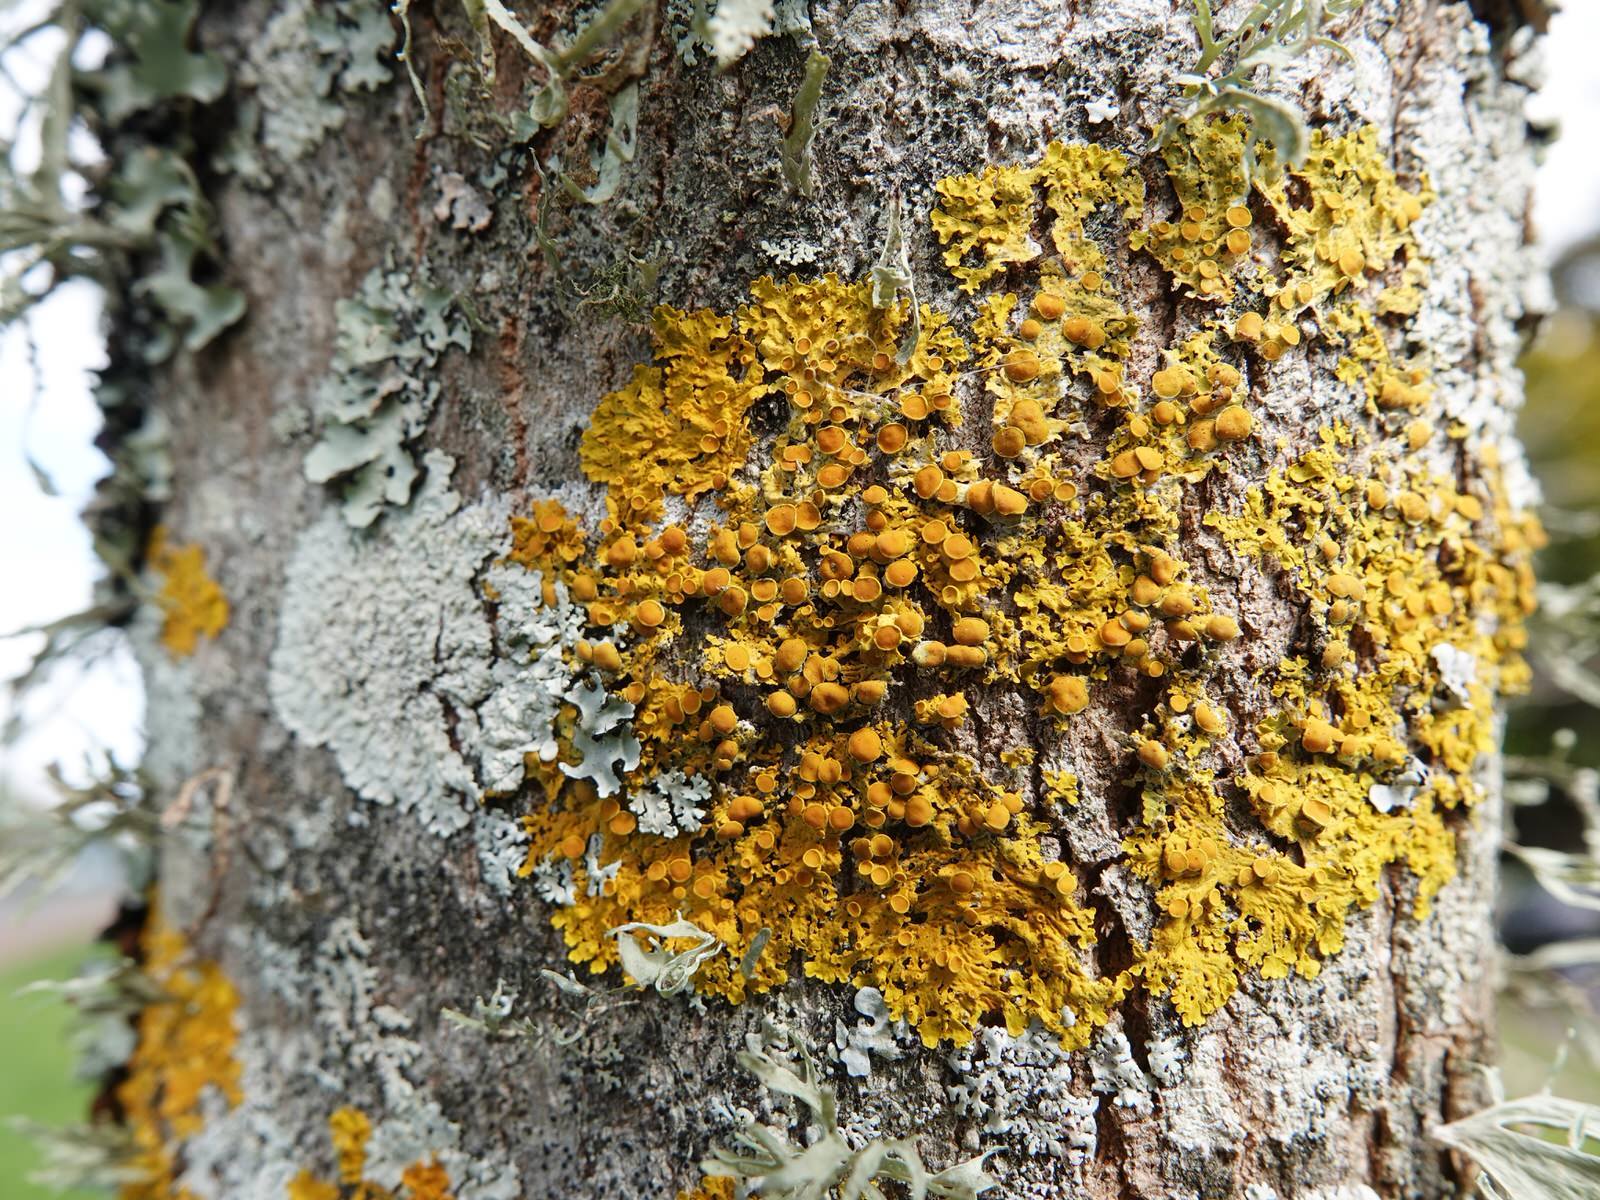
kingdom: Fungi
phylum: Ascomycota
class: Lecanoromycetes
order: Teloschistales
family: Teloschistaceae
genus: Xanthoria
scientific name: Xanthoria parietina
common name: Common orange lichen
